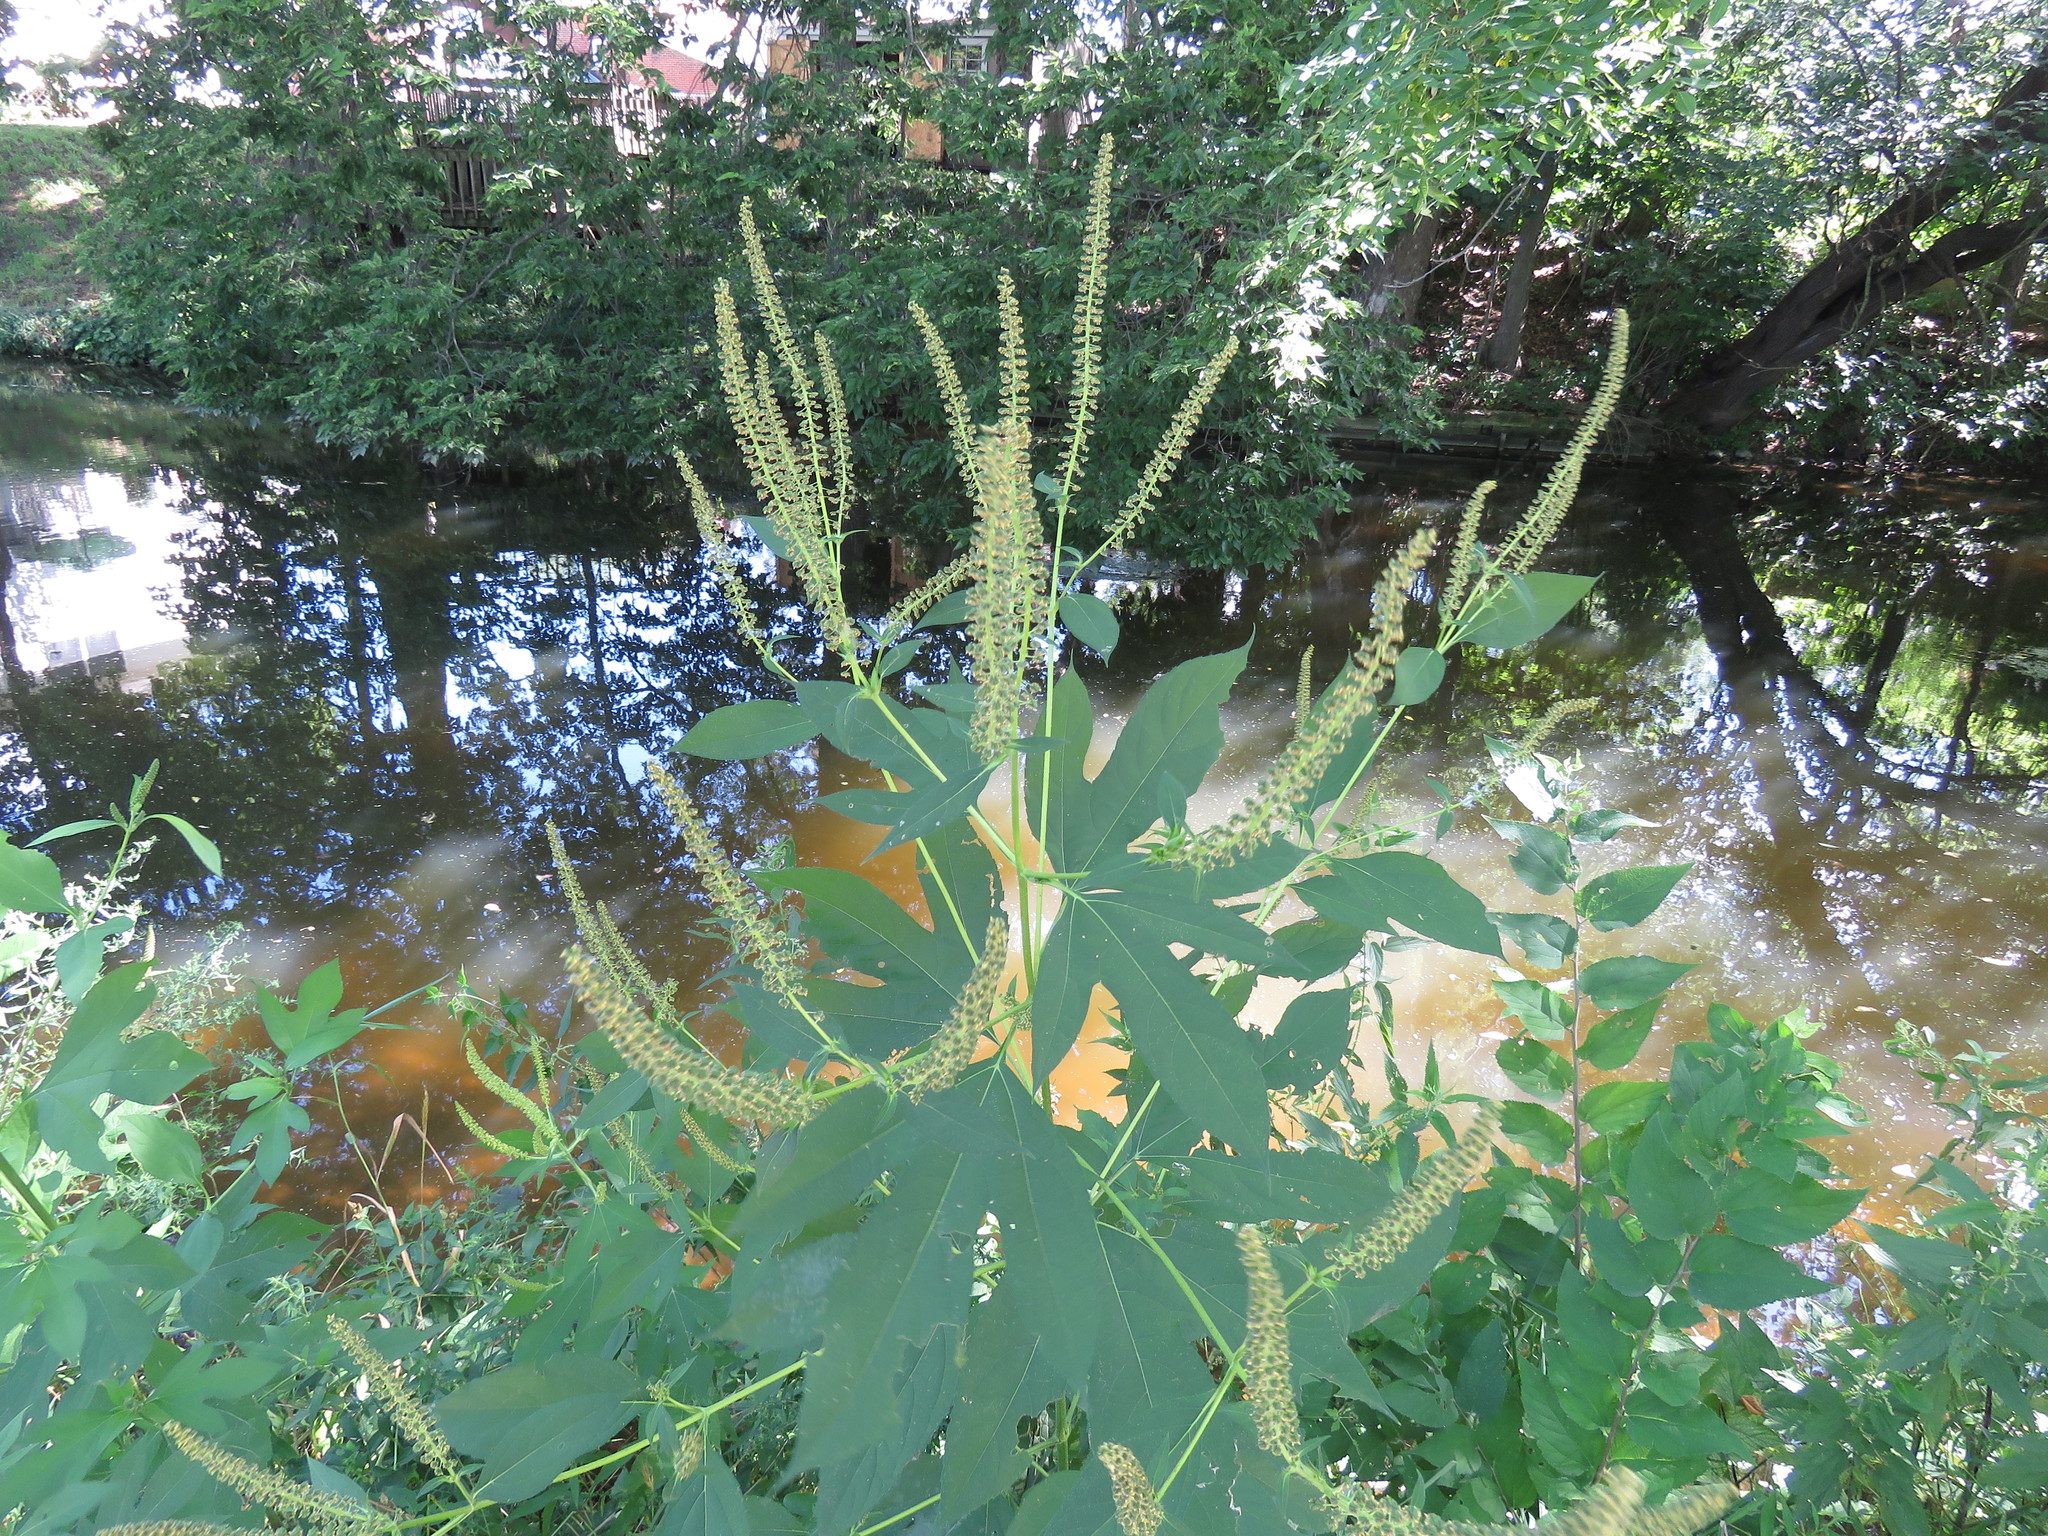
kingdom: Plantae
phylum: Tracheophyta
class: Magnoliopsida
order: Asterales
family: Asteraceae
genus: Ambrosia
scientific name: Ambrosia trifida
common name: Giant ragweed
